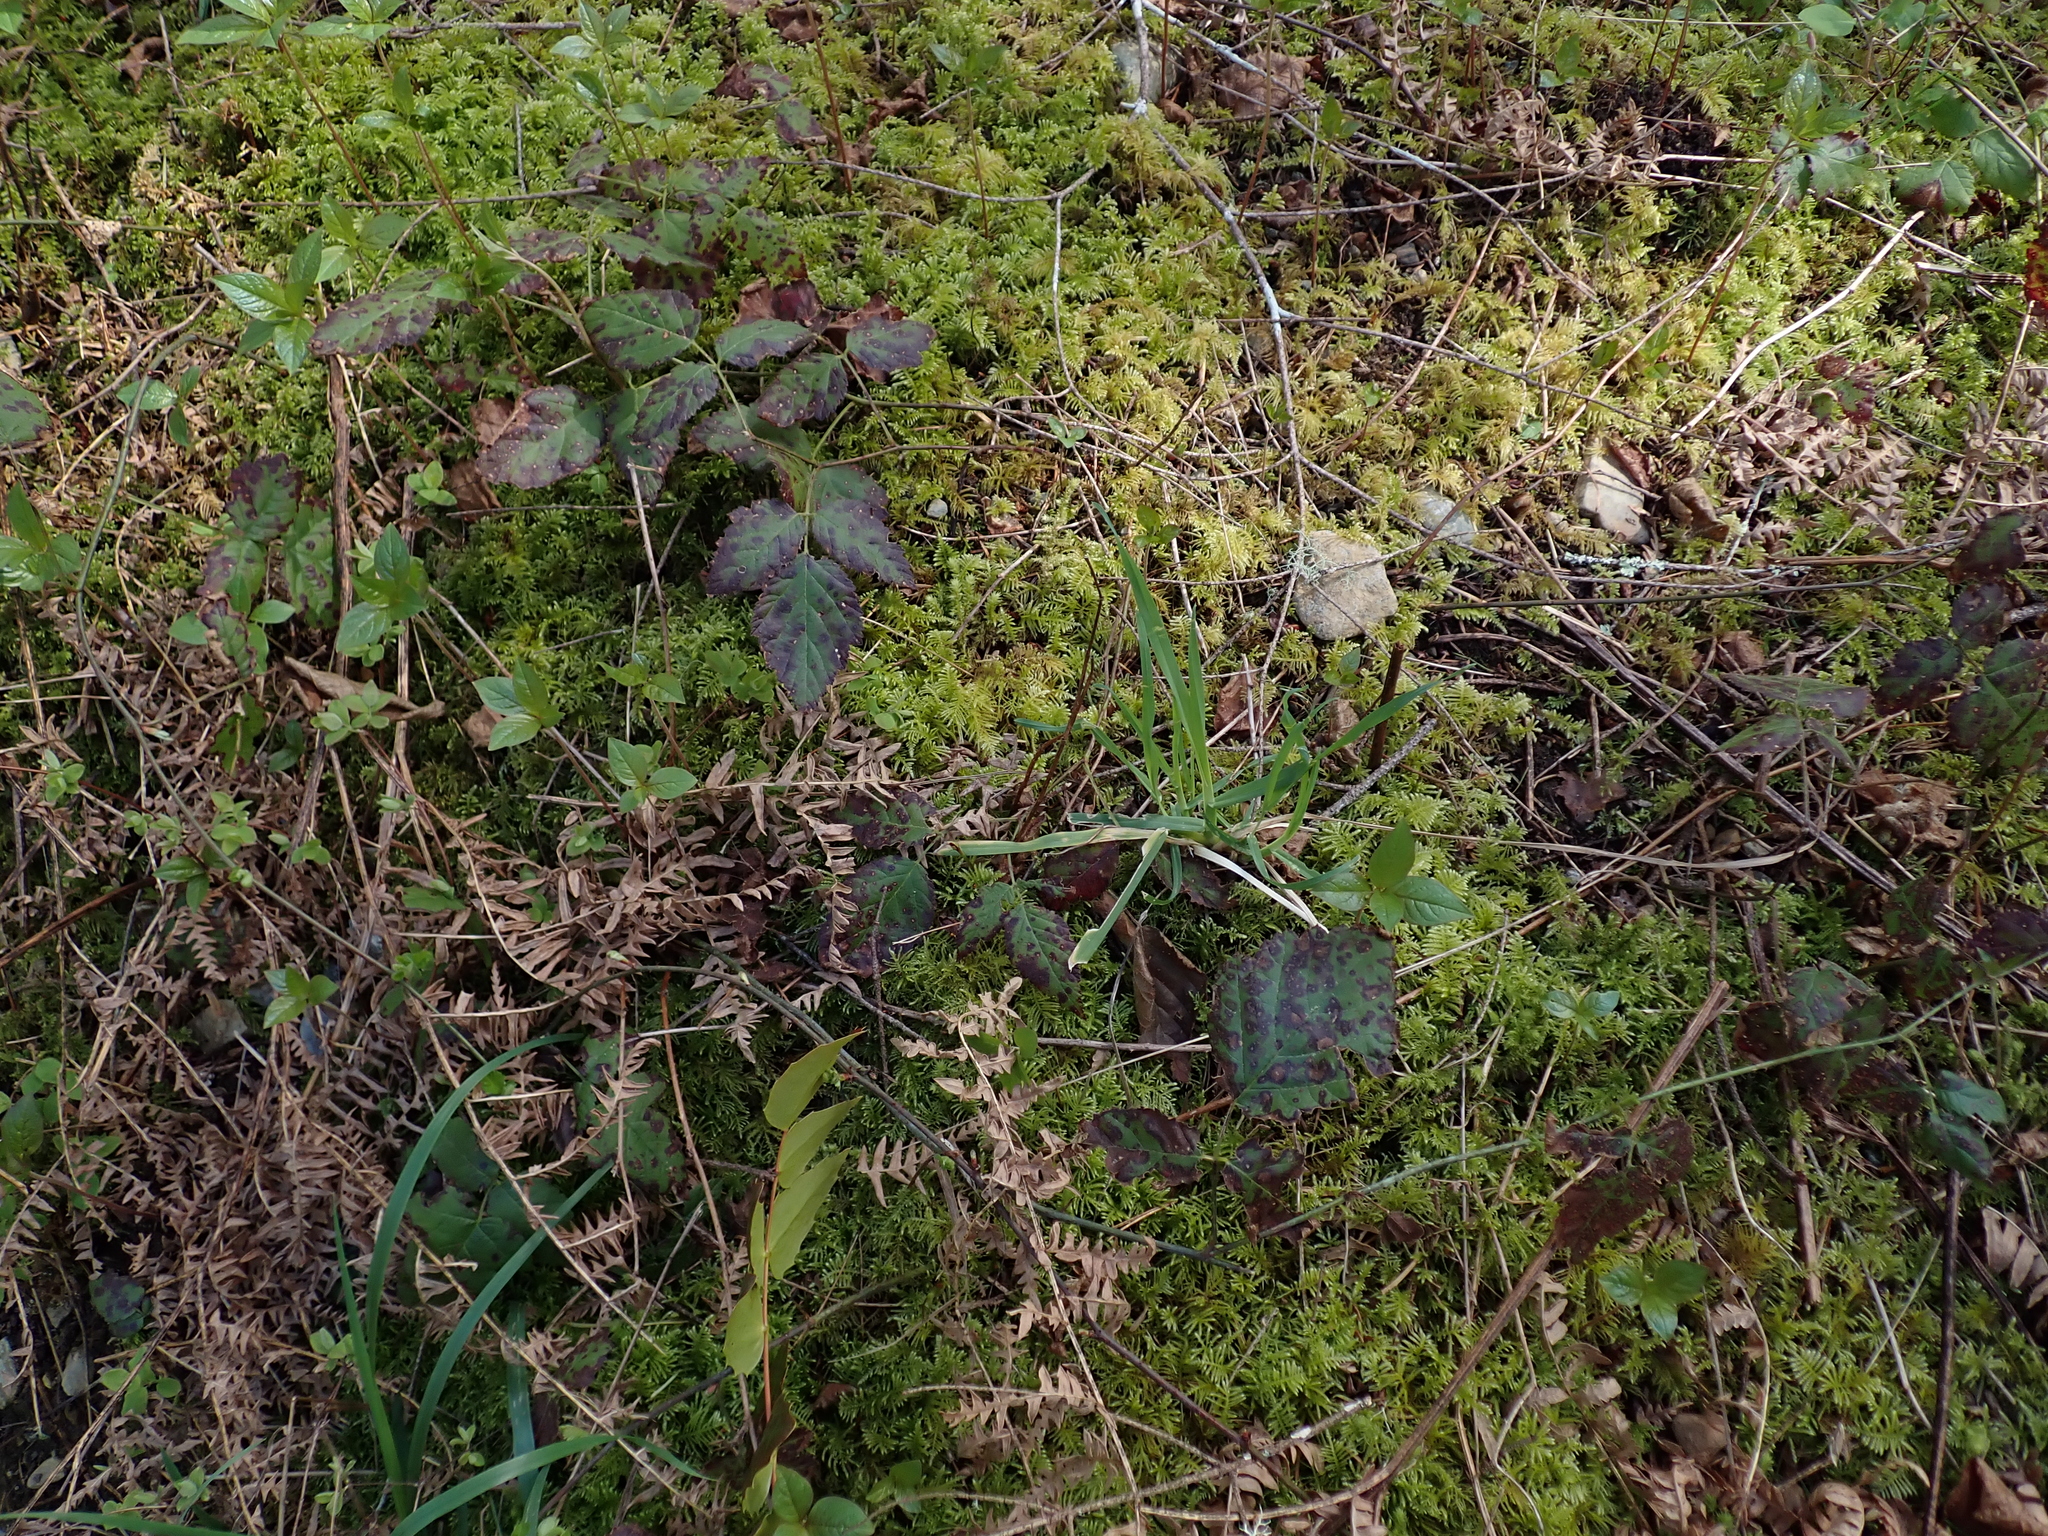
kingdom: Plantae
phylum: Tracheophyta
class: Magnoliopsida
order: Rosales
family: Rosaceae
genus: Rubus
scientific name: Rubus ursinus
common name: Pacific blackberry
